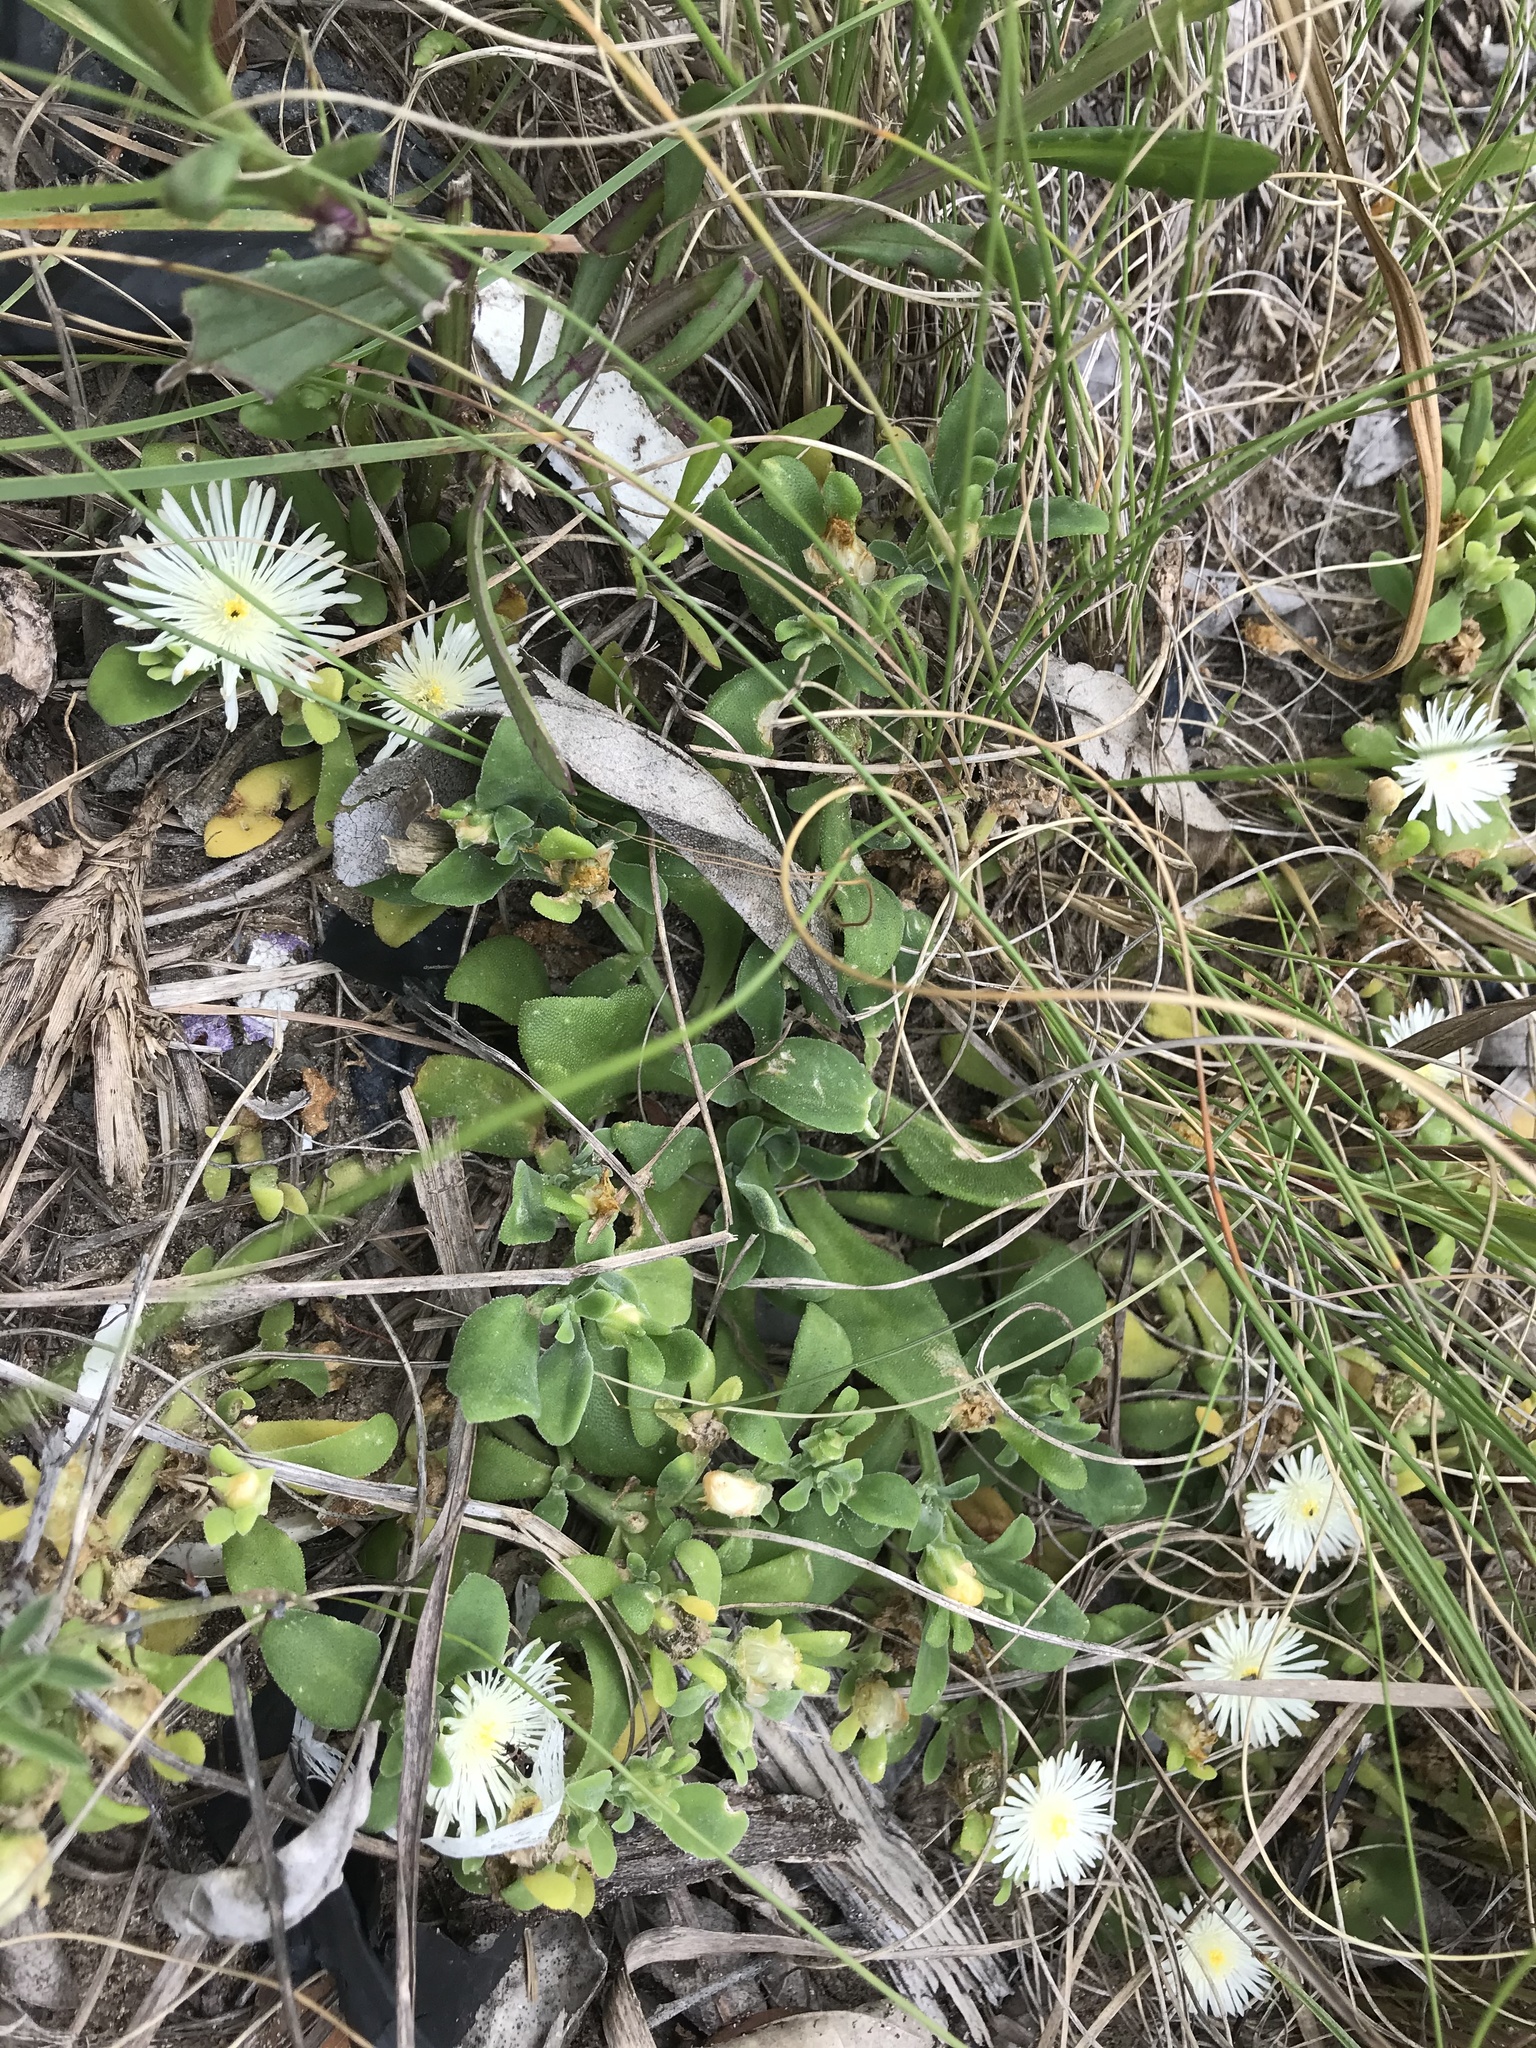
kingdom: Plantae
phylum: Tracheophyta
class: Magnoliopsida
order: Caryophyllales
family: Aizoaceae
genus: Mesembryanthemum
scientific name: Mesembryanthemum aitonis
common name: Angled iceplant
